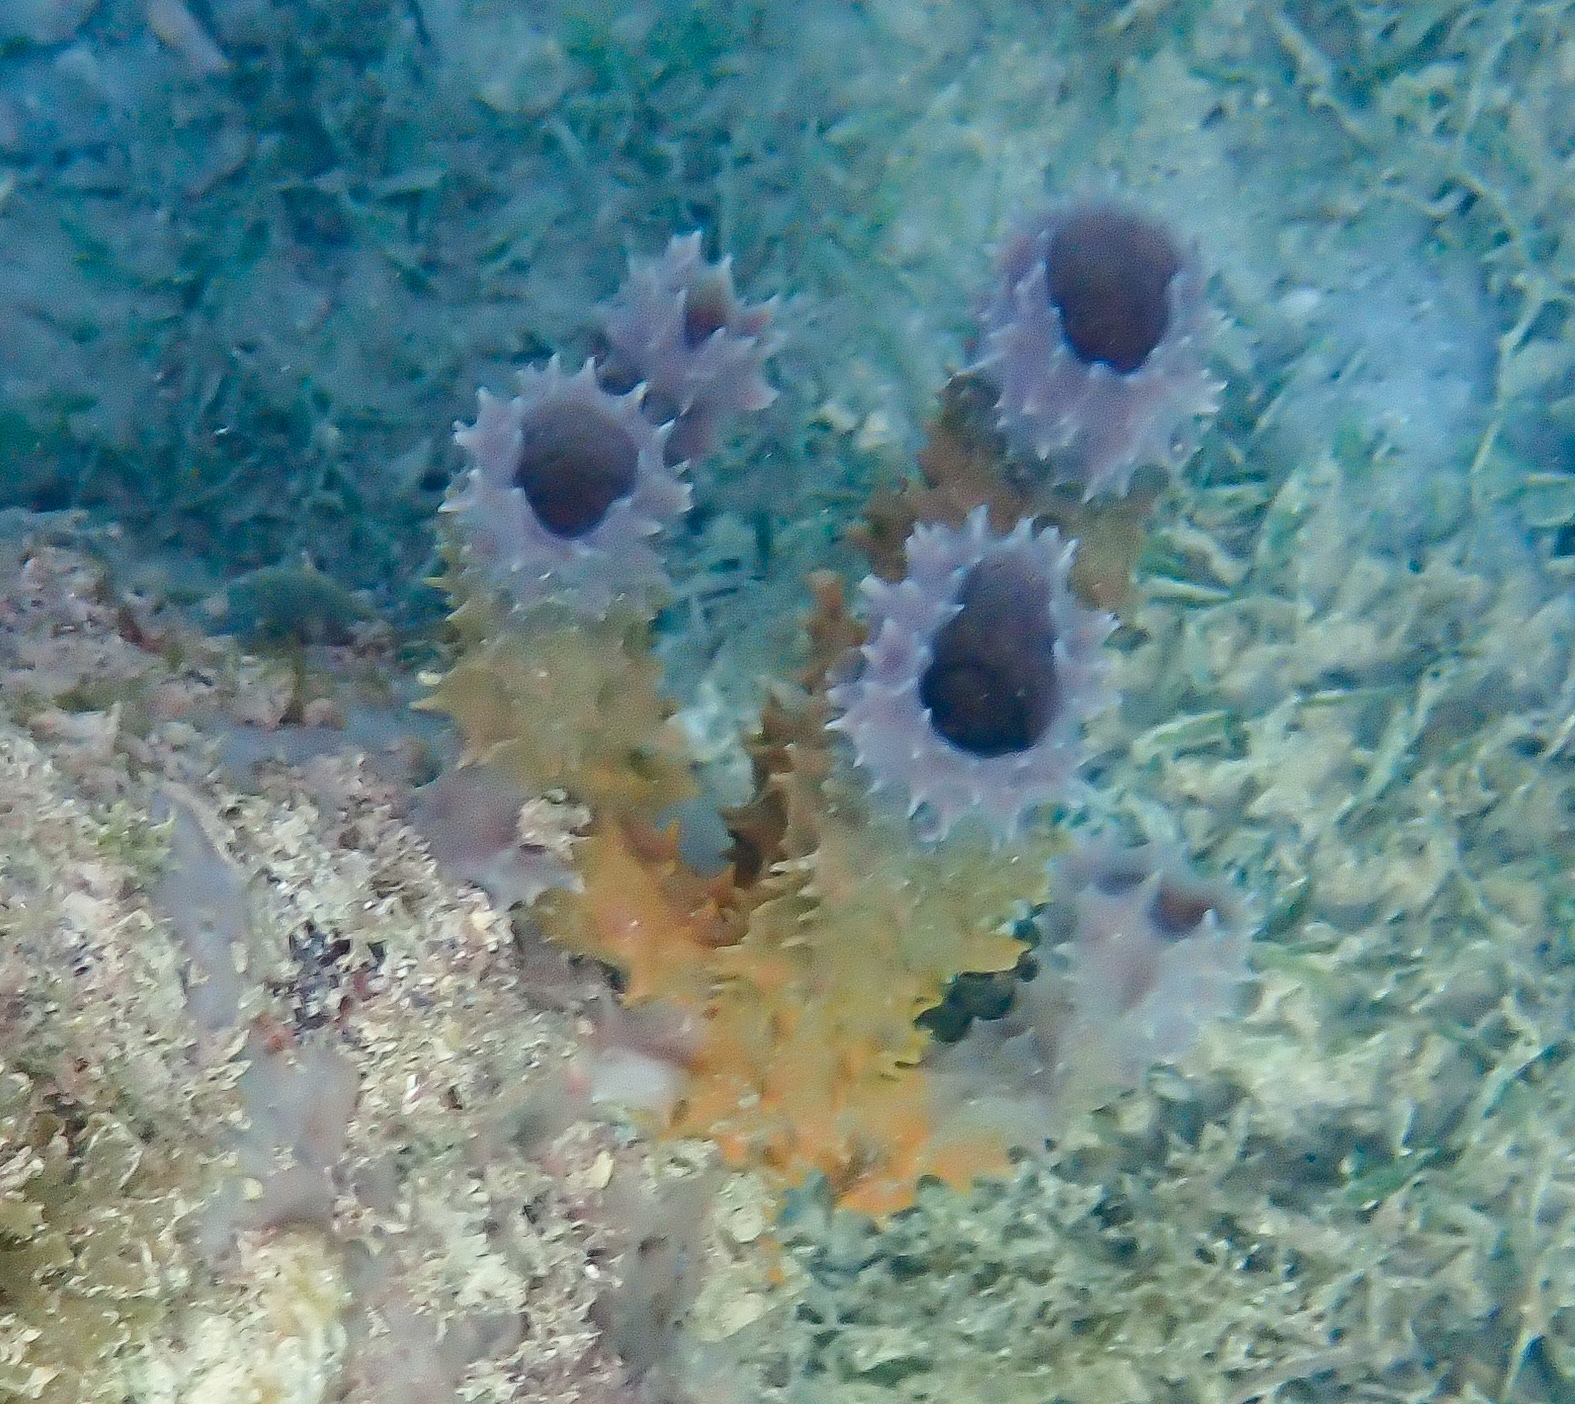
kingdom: Animalia
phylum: Porifera
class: Demospongiae
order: Haplosclerida
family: Callyspongiidae
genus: Callyspongia
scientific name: Callyspongia armigera
